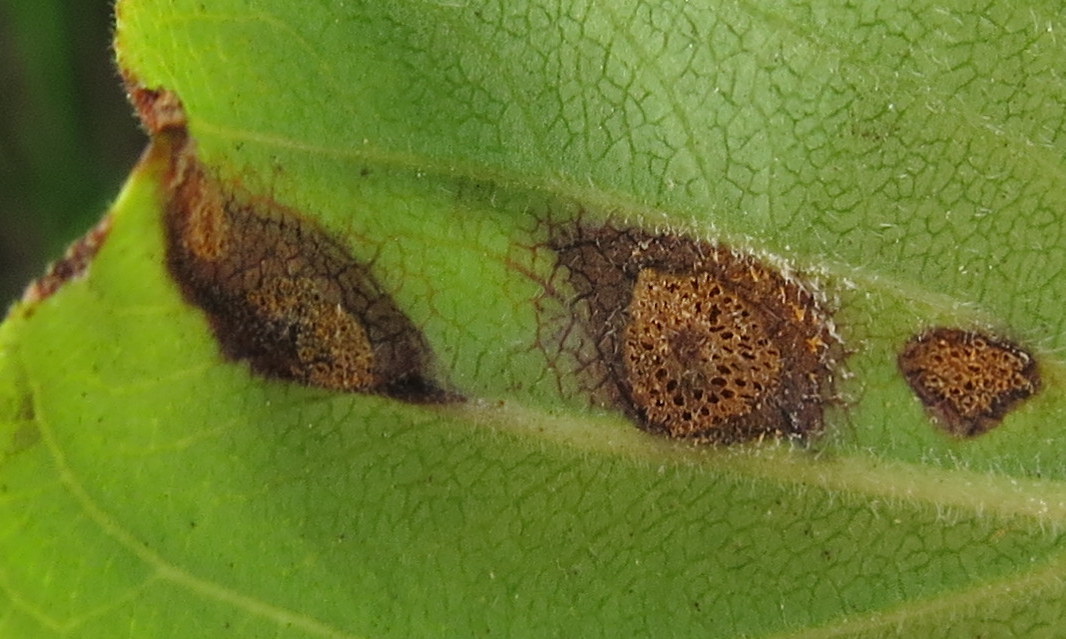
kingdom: Fungi
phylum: Basidiomycota
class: Pucciniomycetes
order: Pucciniales
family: Pucciniaceae
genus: Puccinia
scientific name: Puccinia coronata
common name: Crown rust
